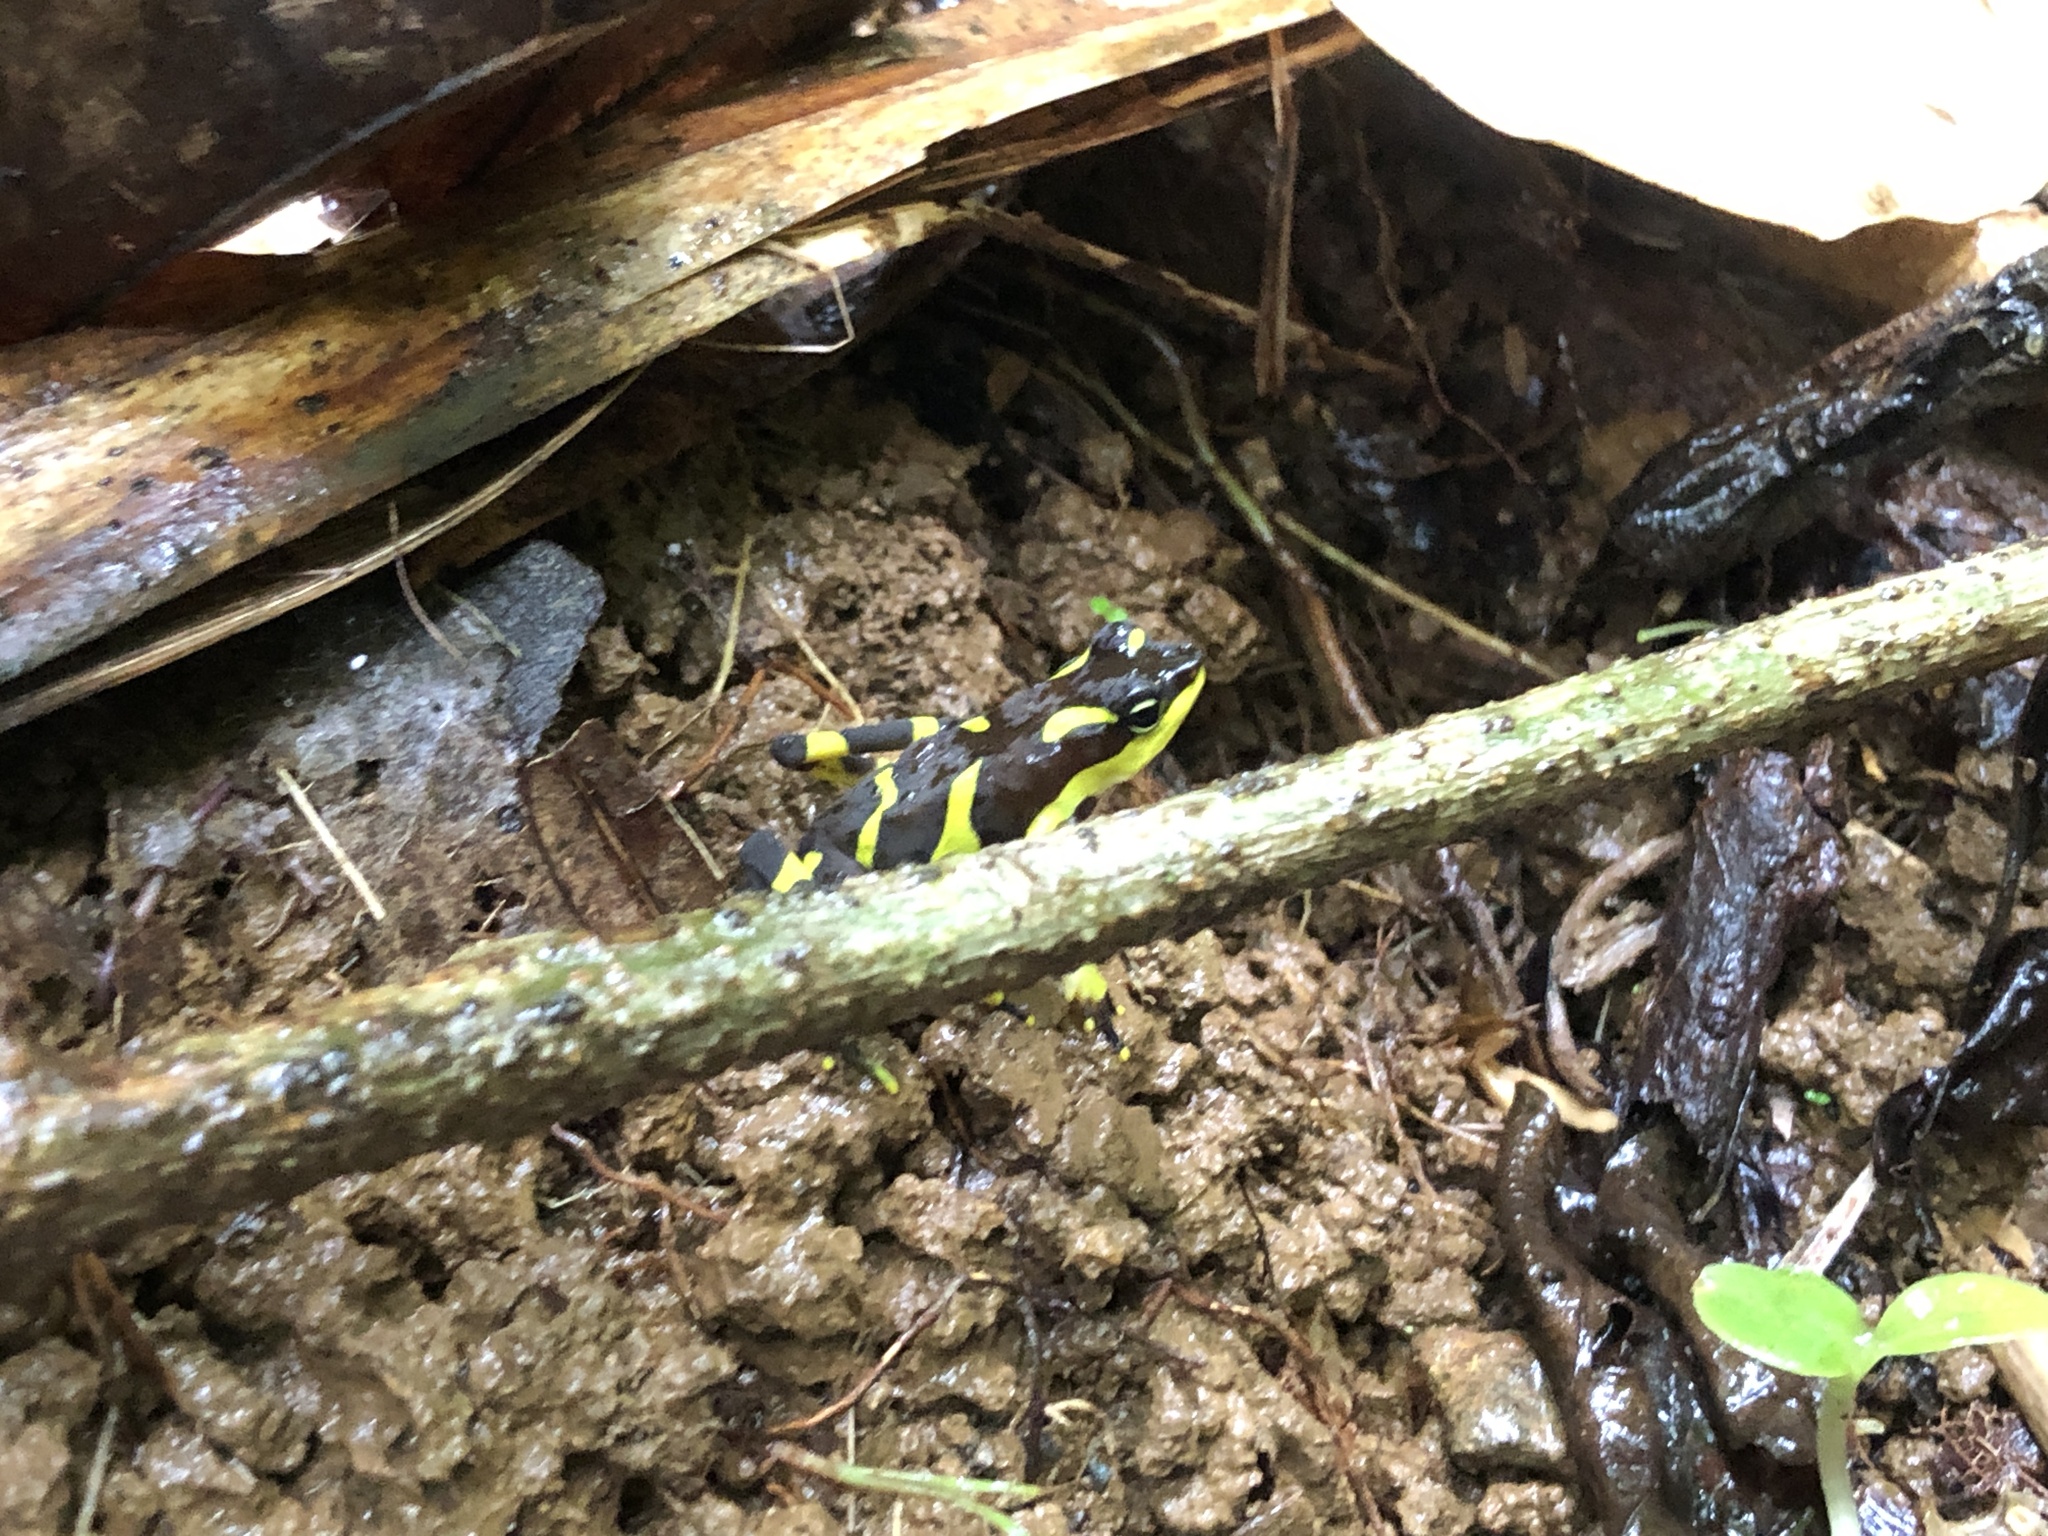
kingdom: Animalia
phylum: Chordata
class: Amphibia
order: Anura
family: Bufonidae
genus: Atelopus
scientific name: Atelopus limosus
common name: Limosa harlequin frog
